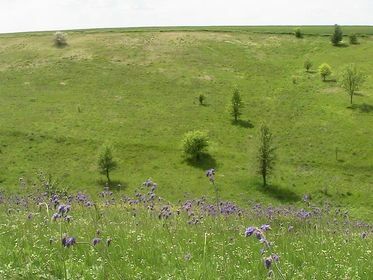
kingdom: Plantae
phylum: Tracheophyta
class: Magnoliopsida
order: Lamiales
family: Lamiaceae
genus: Salvia
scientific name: Salvia nutans
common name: Nodding sage
